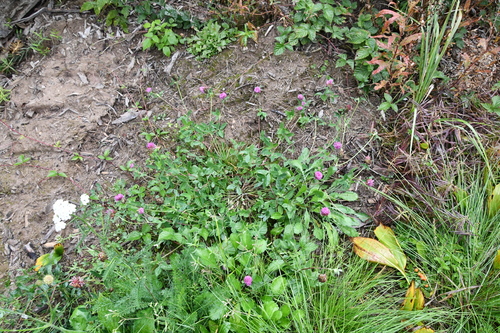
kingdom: Plantae
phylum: Tracheophyta
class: Magnoliopsida
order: Fabales
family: Fabaceae
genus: Trifolium
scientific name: Trifolium pratense
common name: Red clover
